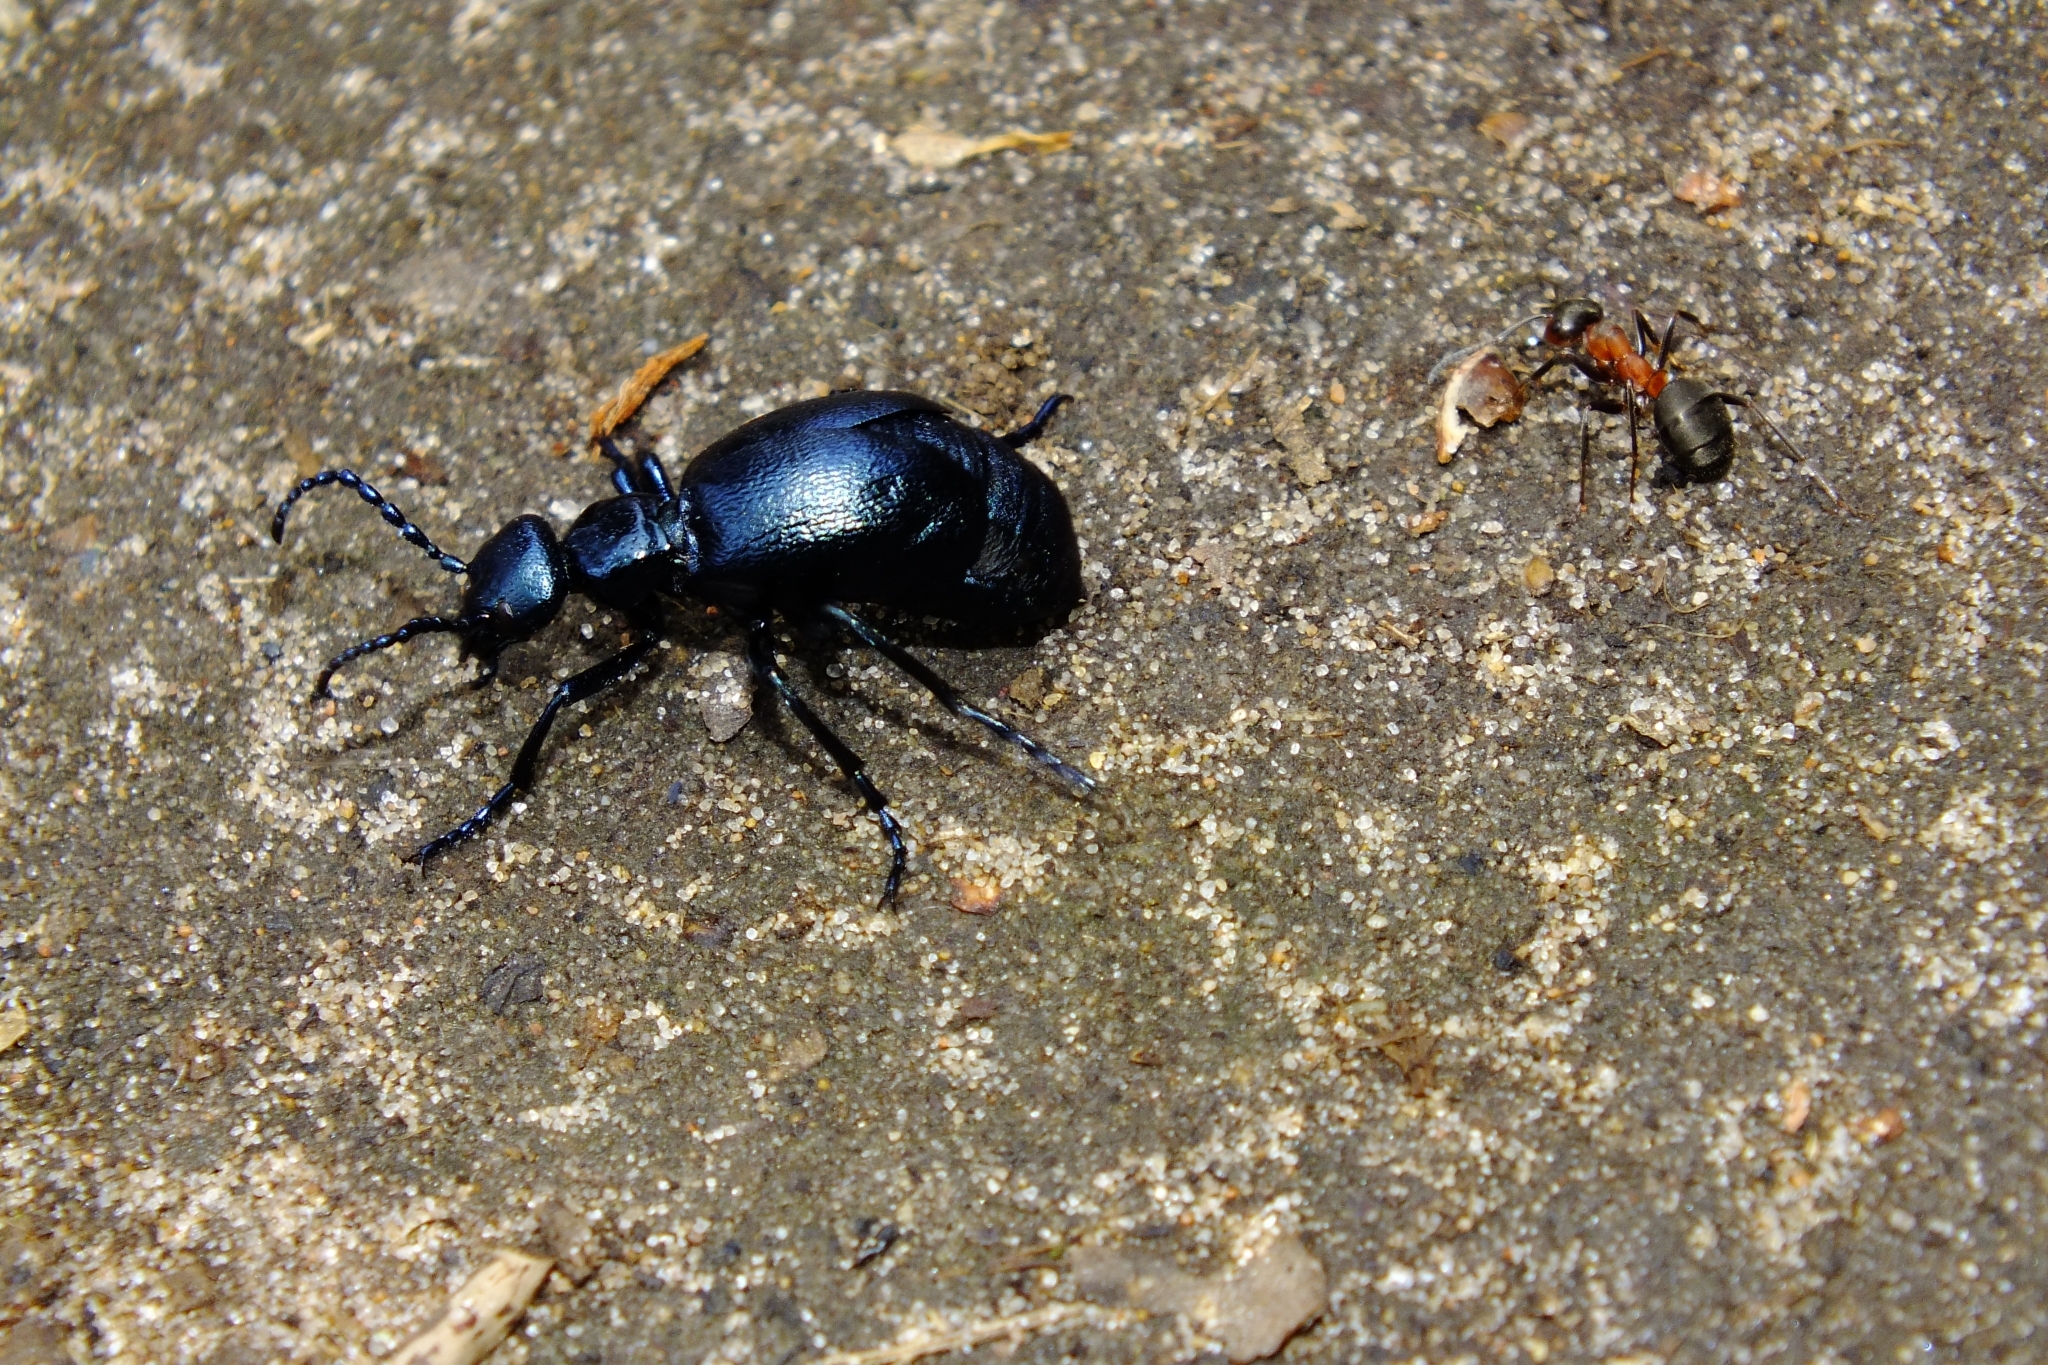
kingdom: Animalia
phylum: Arthropoda
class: Insecta
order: Coleoptera
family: Meloidae
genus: Meloe
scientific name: Meloe violaceus
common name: Violet oil-beetle
